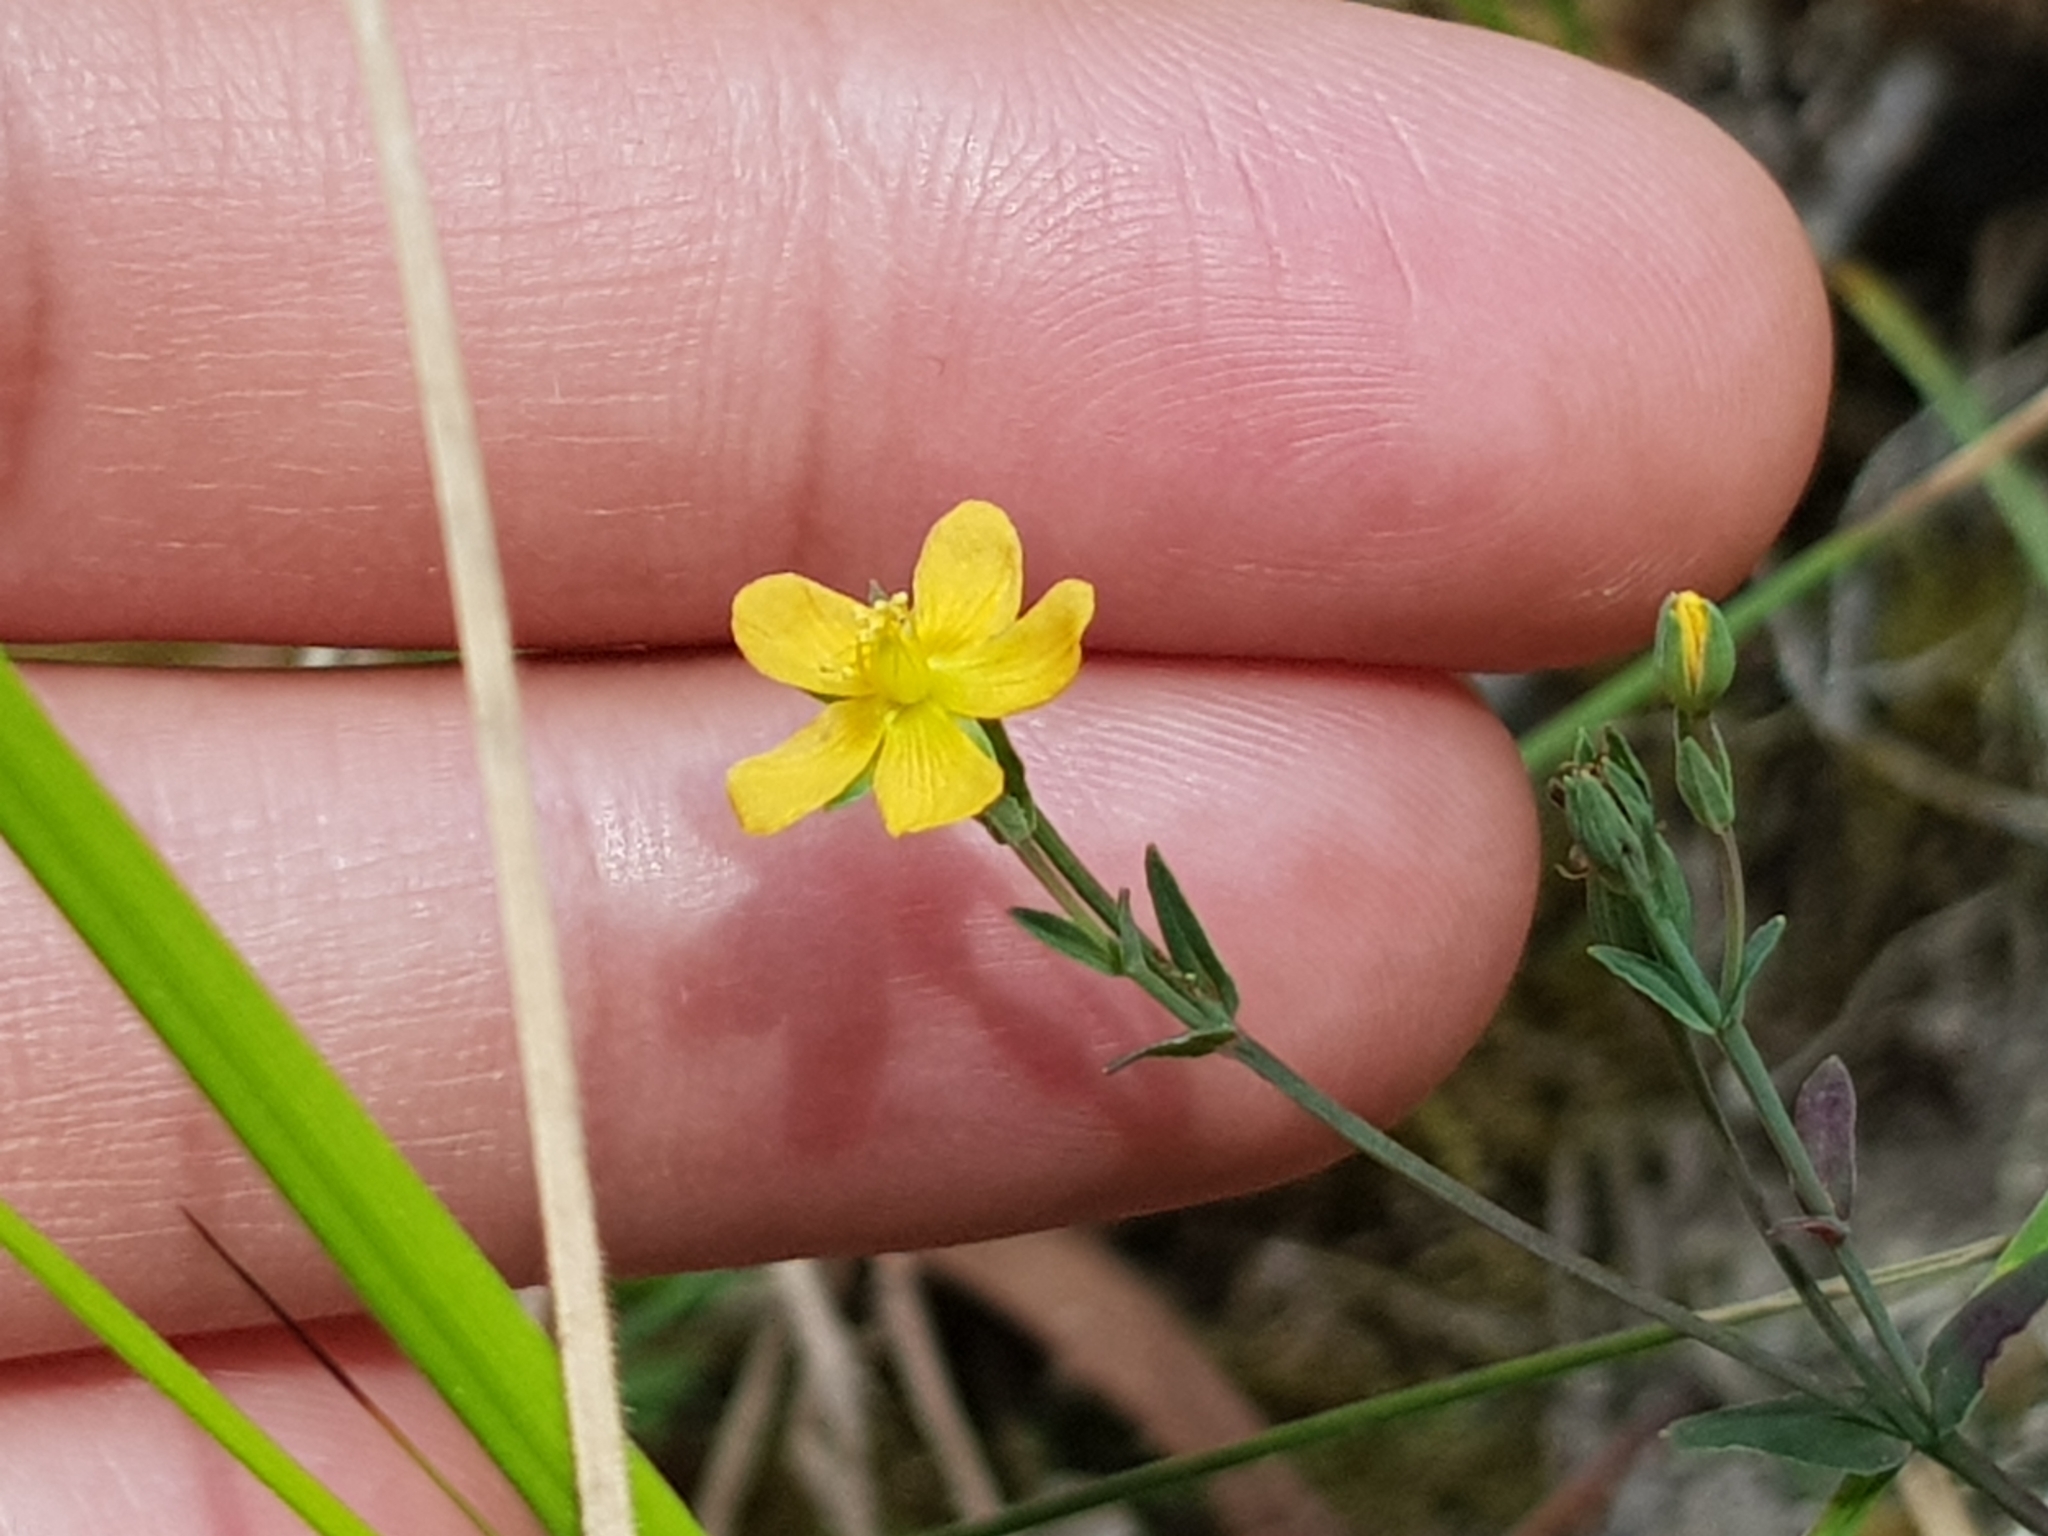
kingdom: Plantae
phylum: Tracheophyta
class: Magnoliopsida
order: Malpighiales
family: Hypericaceae
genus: Hypericum
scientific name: Hypericum gramineum
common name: Grassy st. johnswort
